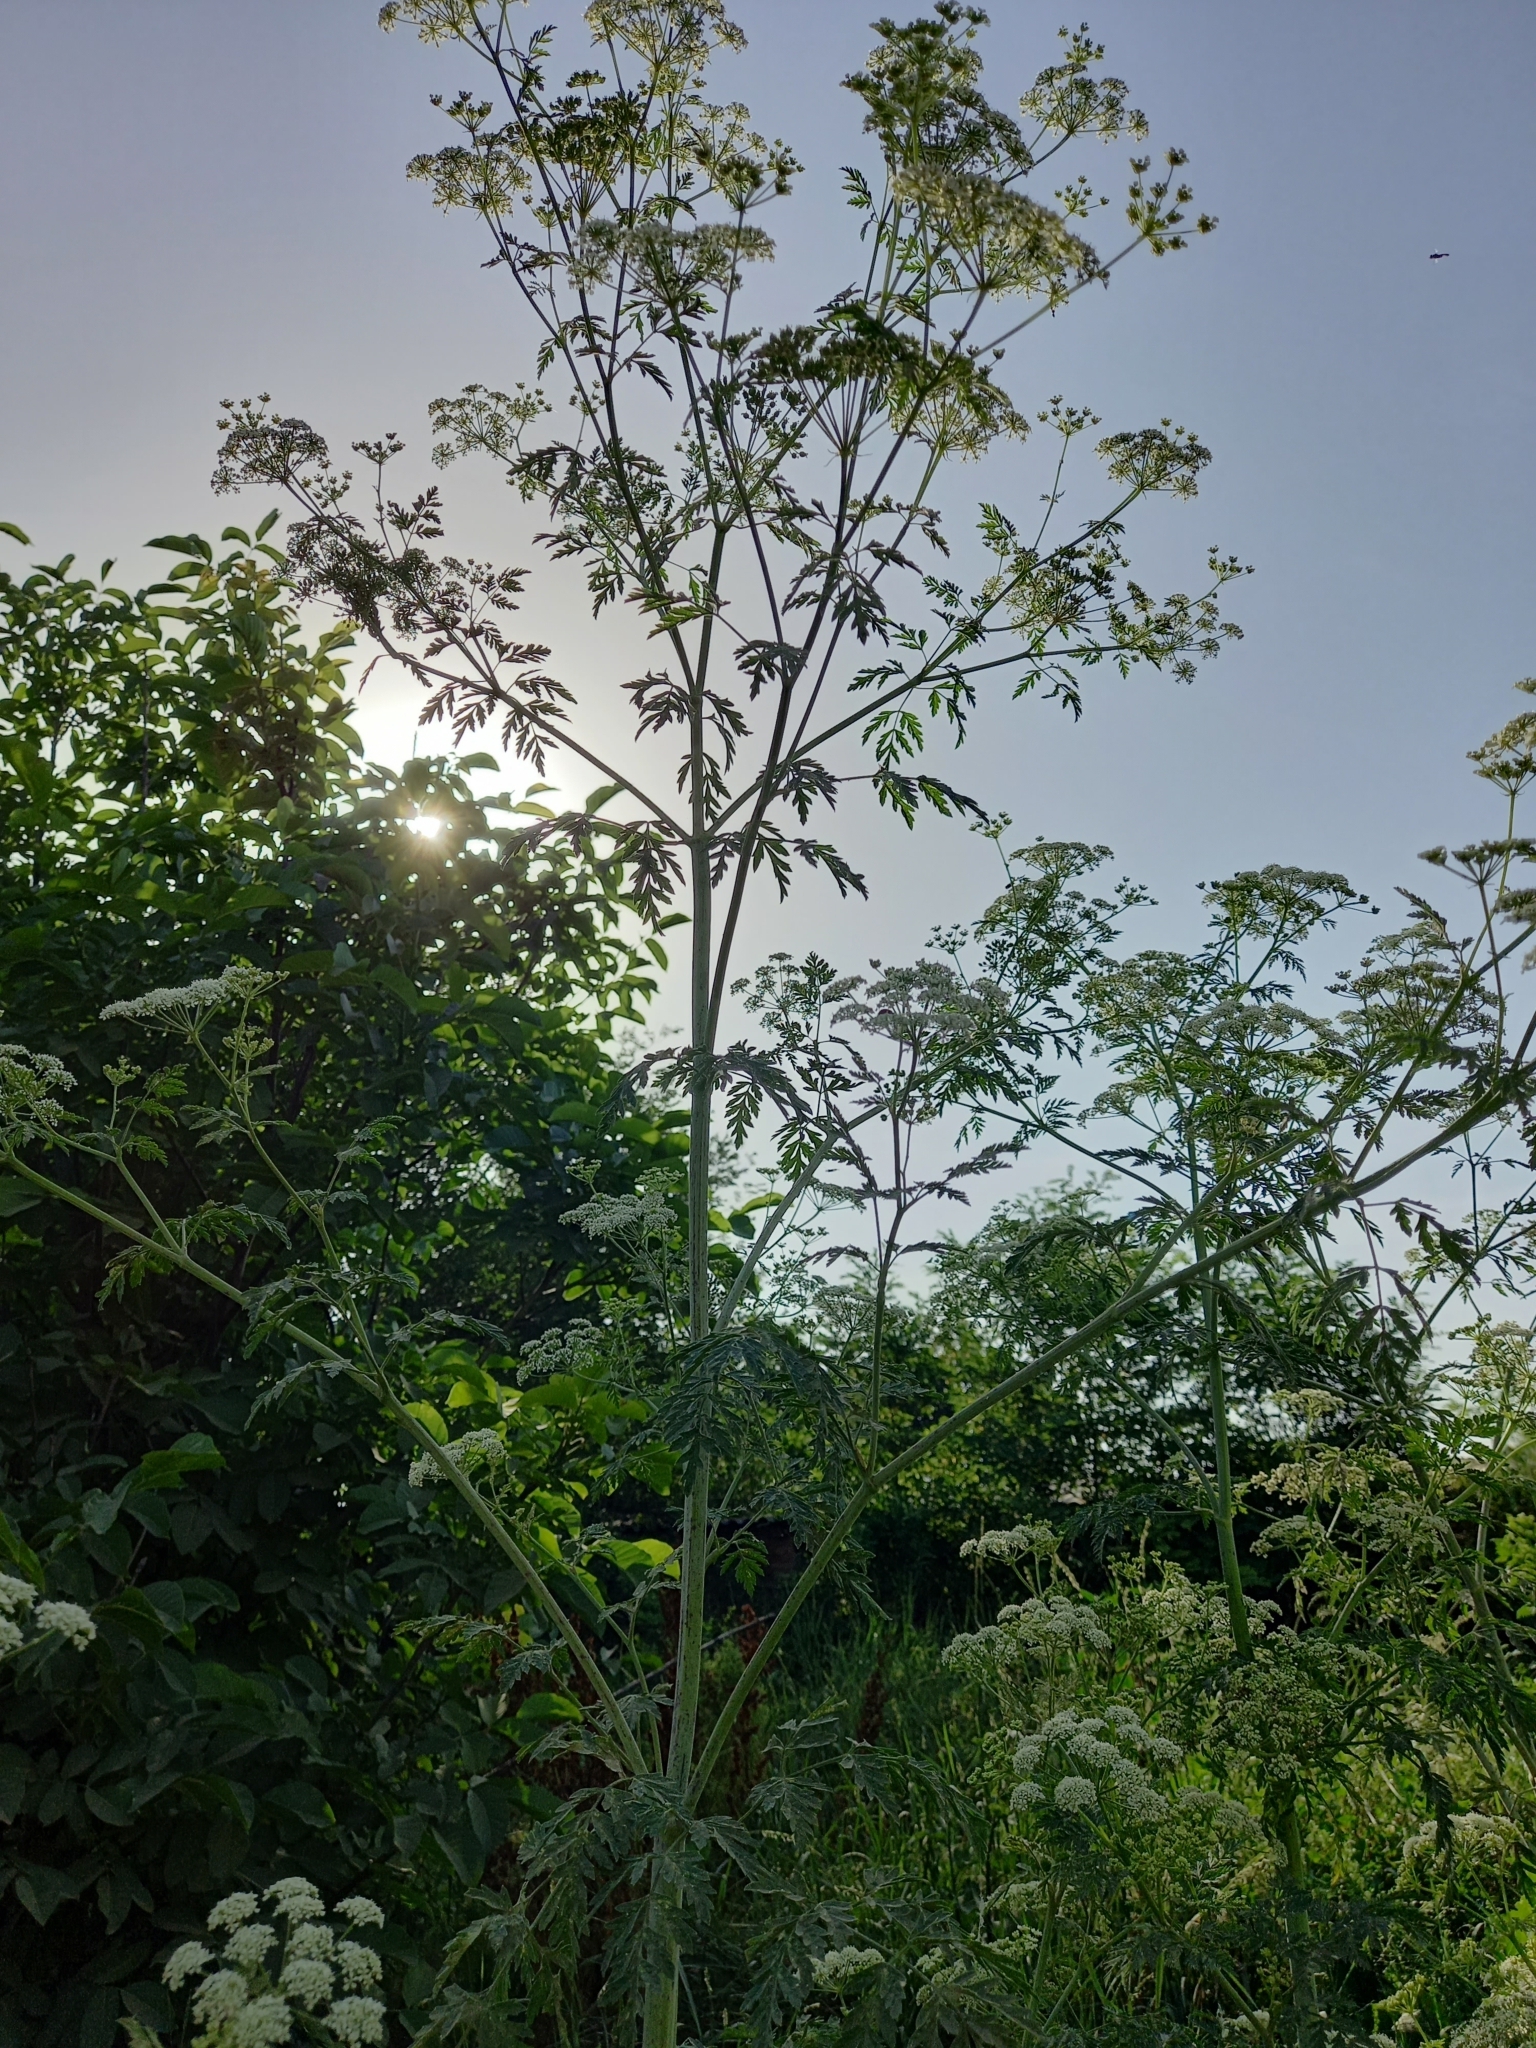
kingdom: Plantae
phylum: Tracheophyta
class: Magnoliopsida
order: Apiales
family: Apiaceae
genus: Conium
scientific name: Conium maculatum
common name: Hemlock
